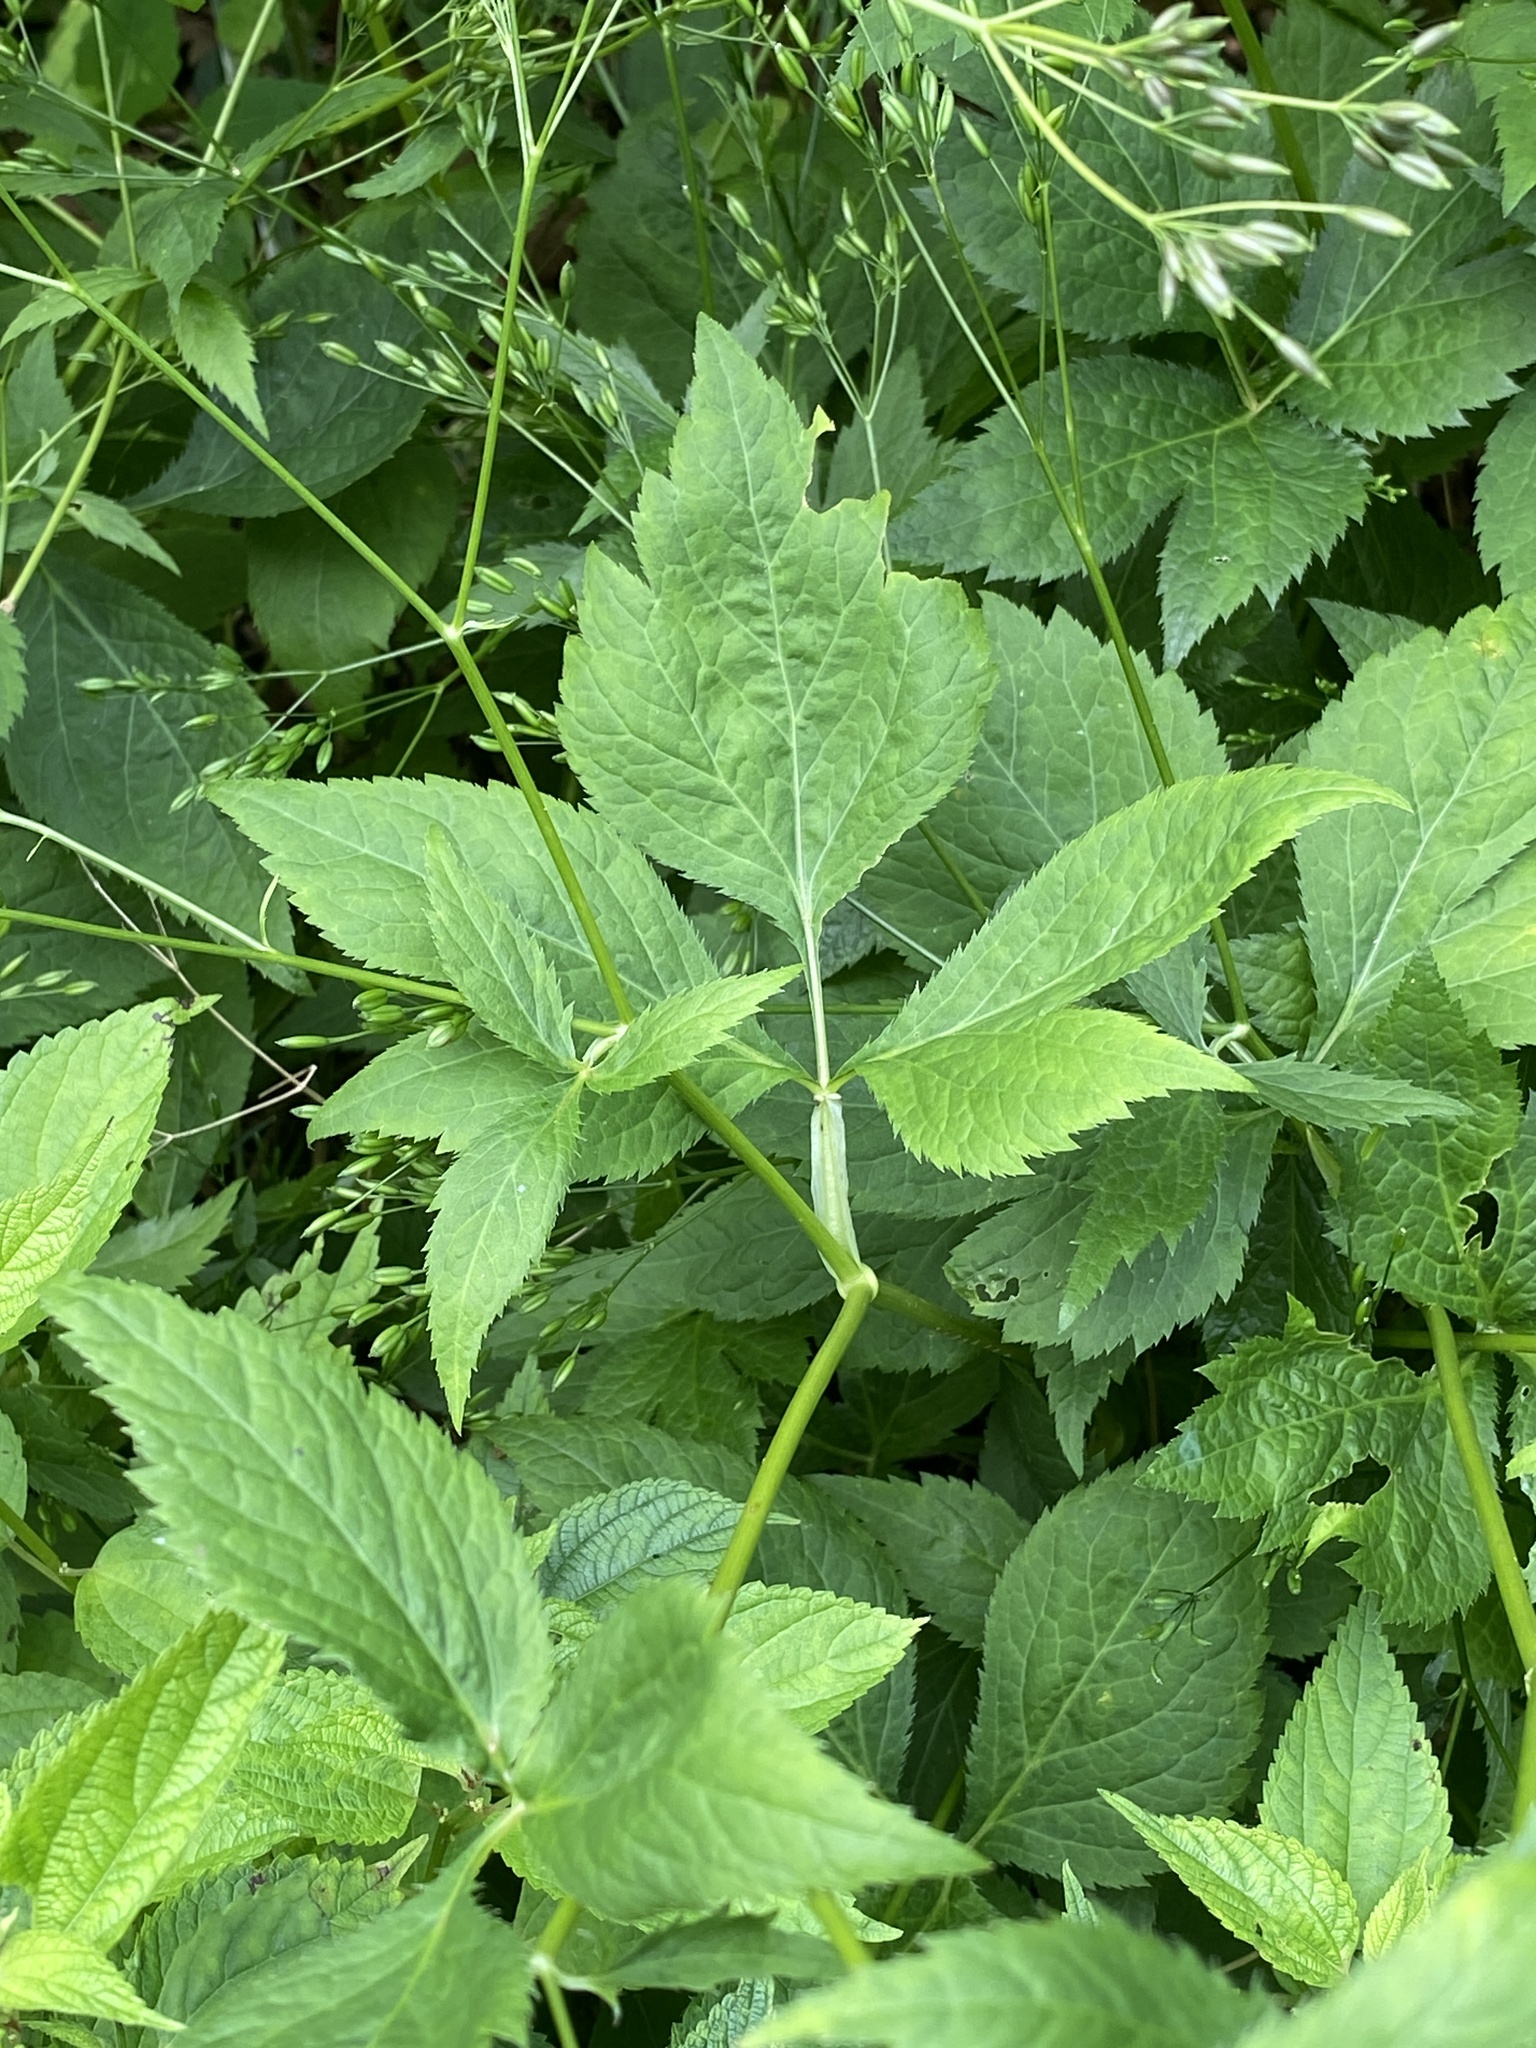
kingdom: Plantae
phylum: Tracheophyta
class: Magnoliopsida
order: Apiales
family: Apiaceae
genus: Cryptotaenia
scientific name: Cryptotaenia canadensis
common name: Honewort
